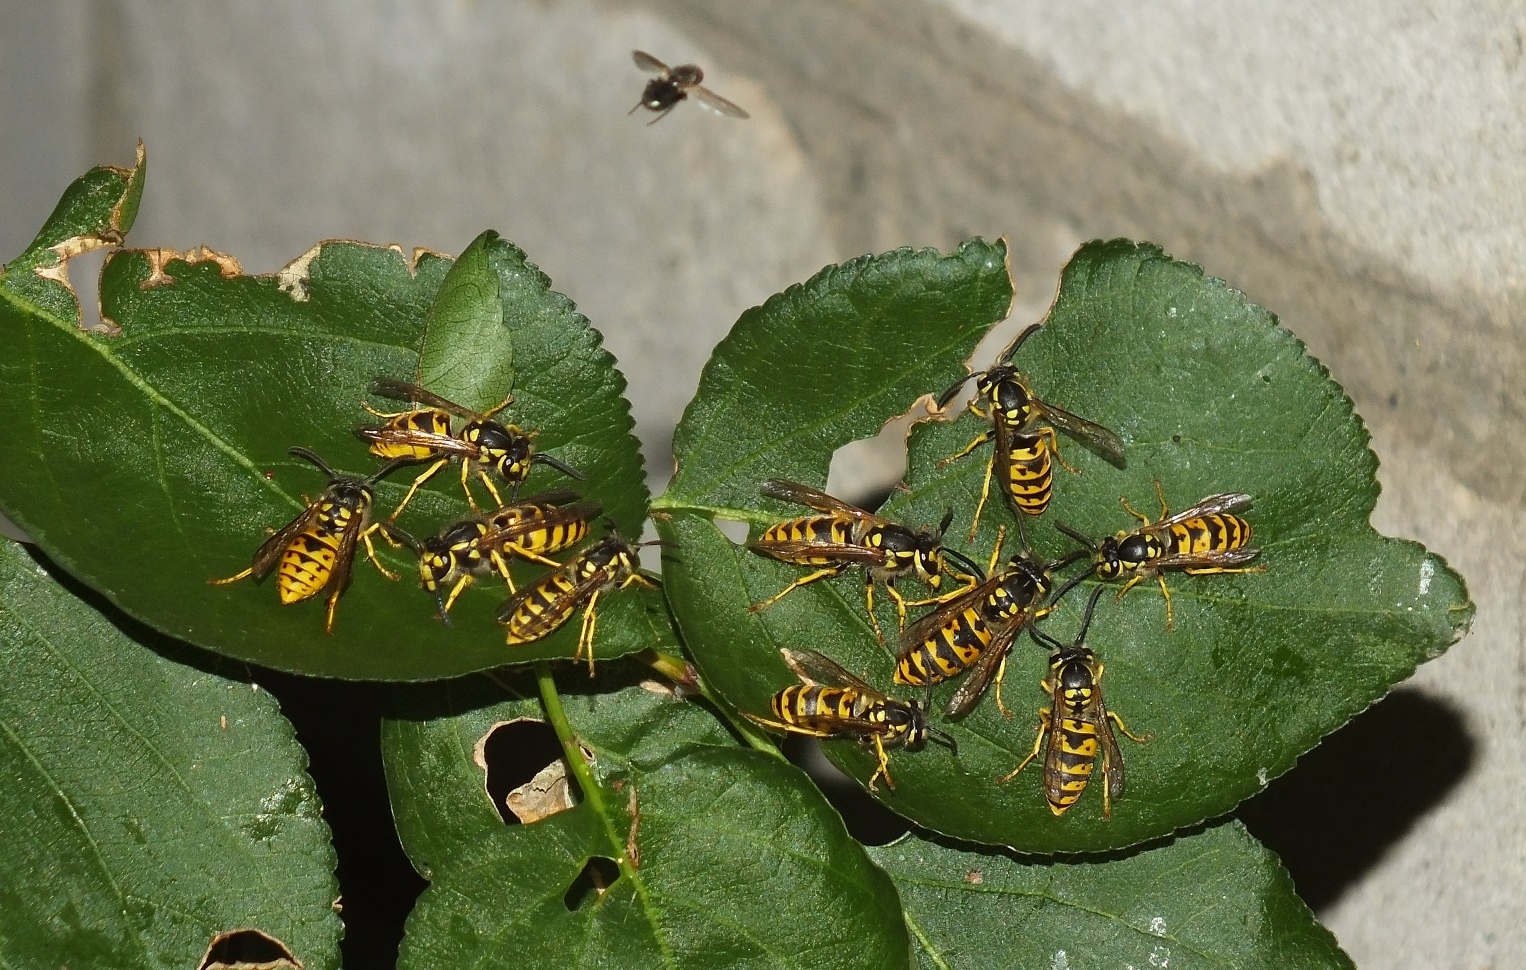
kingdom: Animalia
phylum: Arthropoda
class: Insecta
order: Hymenoptera
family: Vespidae
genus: Vespula
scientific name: Vespula germanica
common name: German wasp
